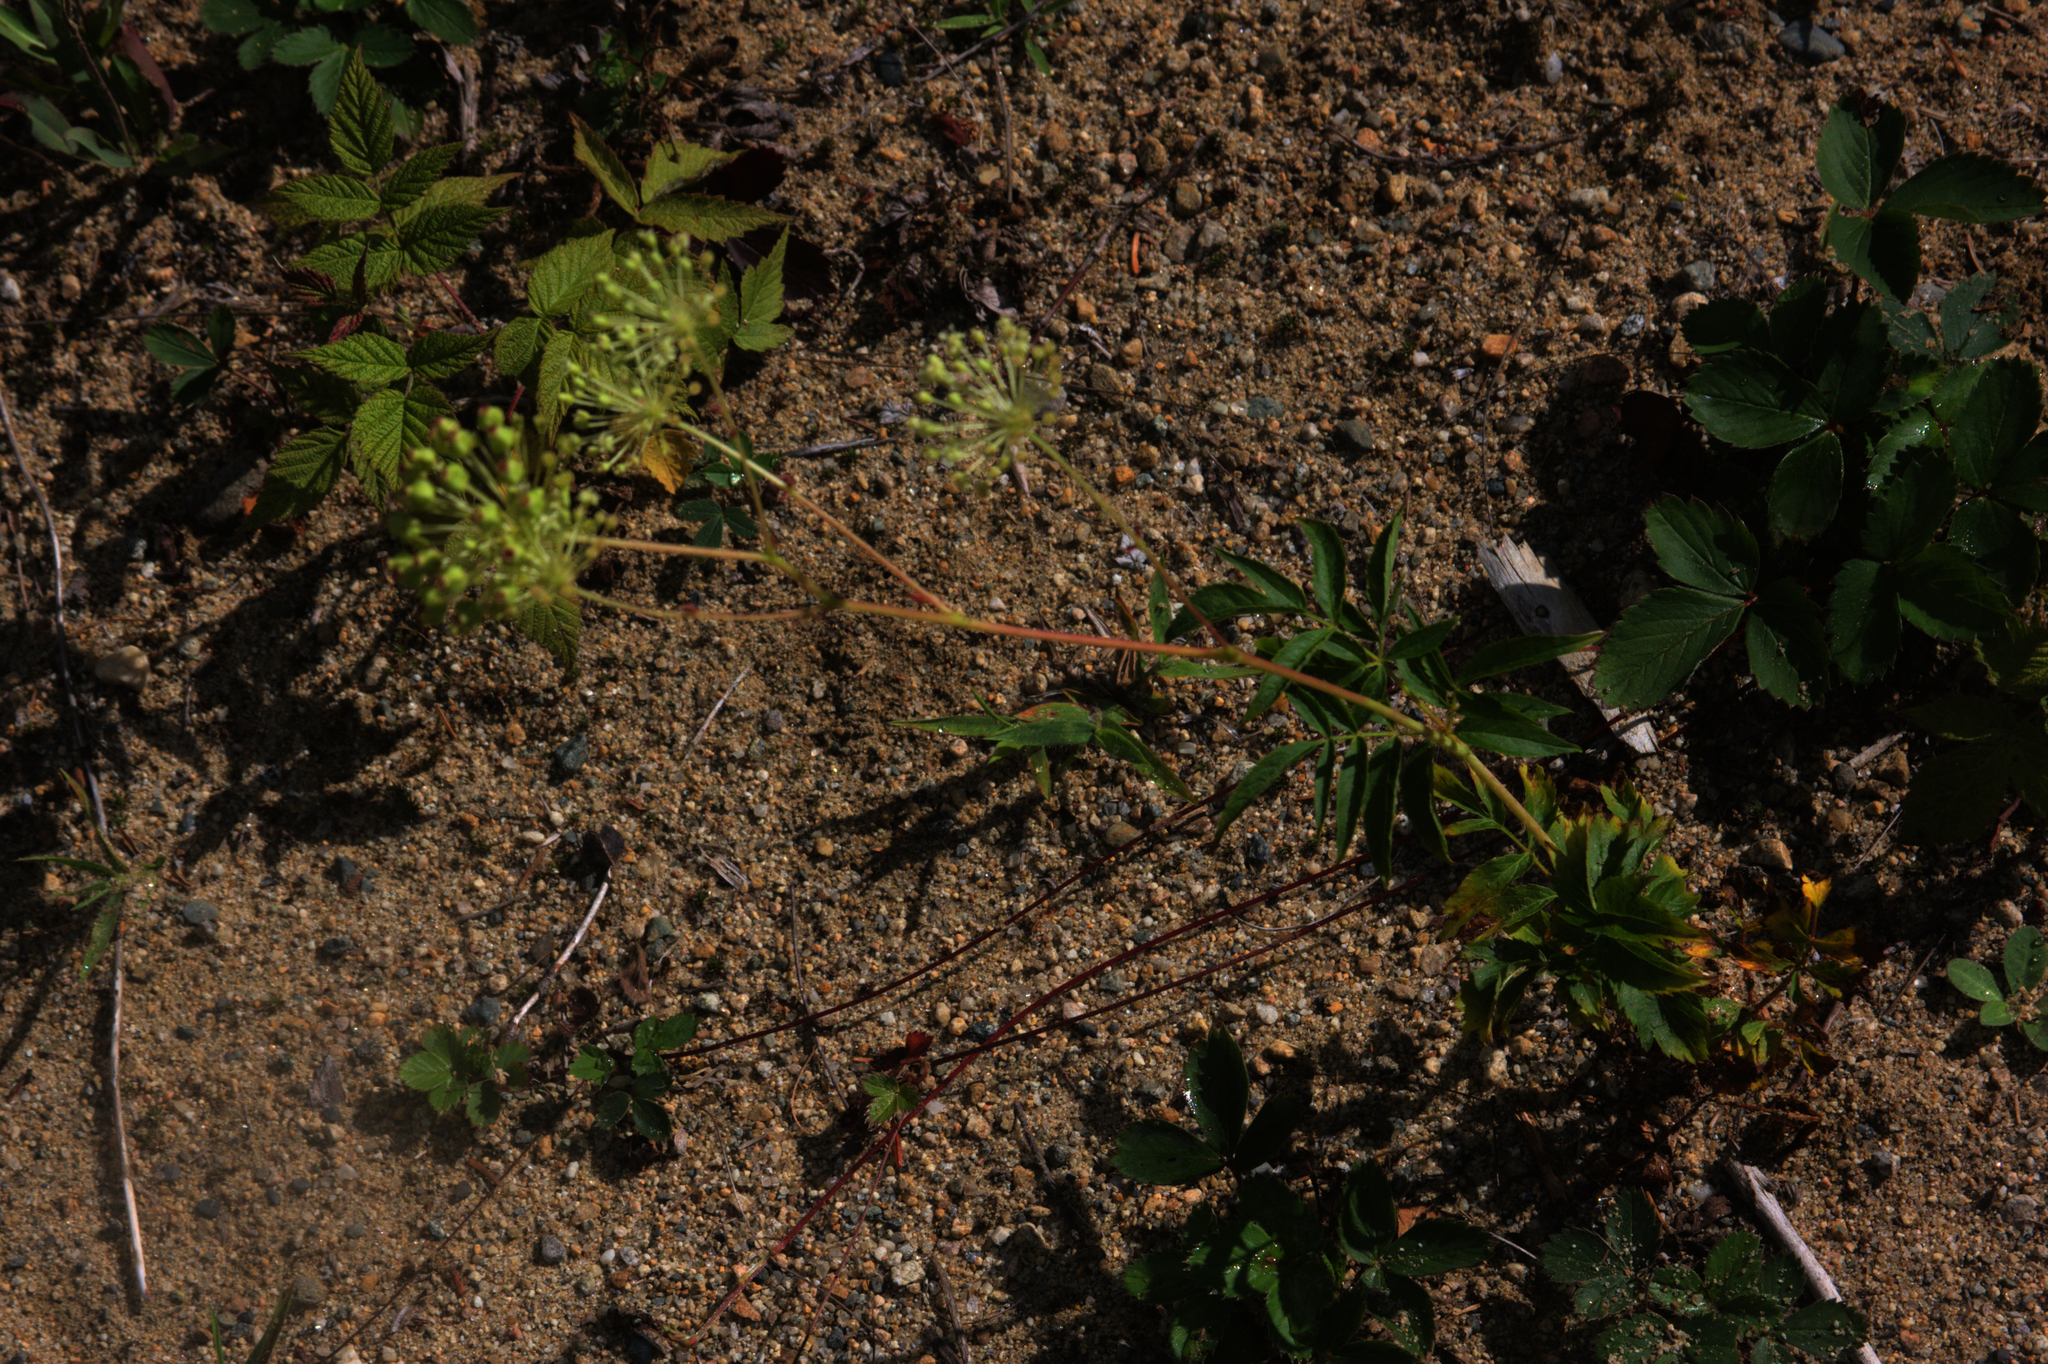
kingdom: Plantae
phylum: Tracheophyta
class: Magnoliopsida
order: Apiales
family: Araliaceae
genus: Aralia
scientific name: Aralia hispida
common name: Bristly sarsaparilla
